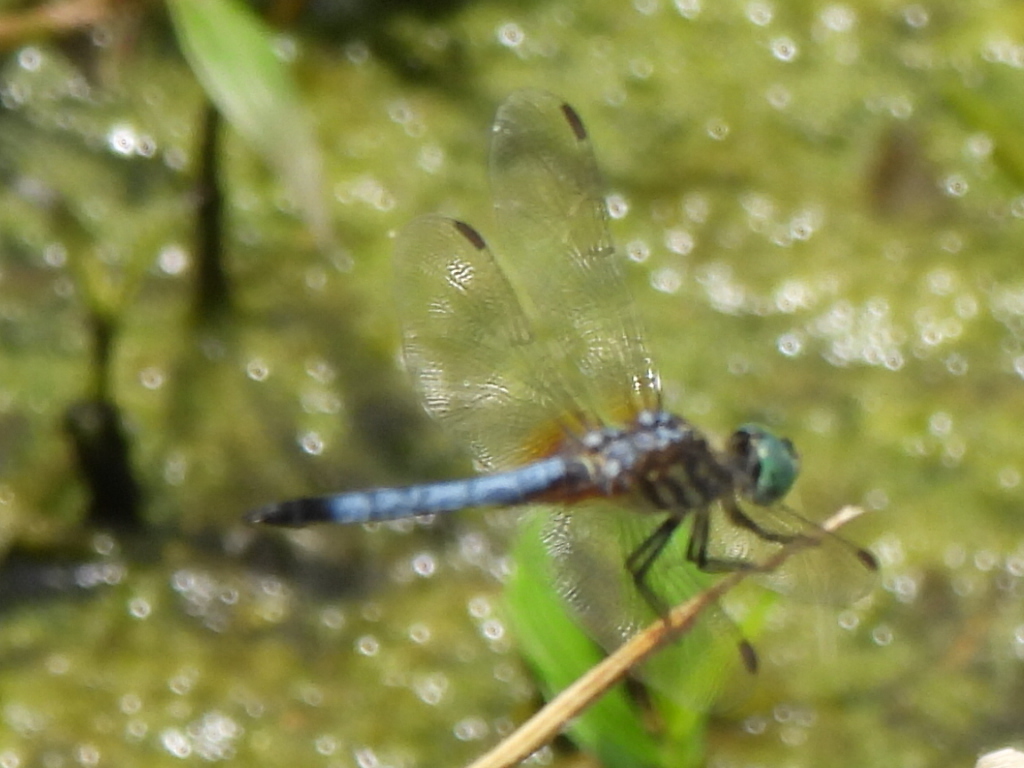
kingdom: Animalia
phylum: Arthropoda
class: Insecta
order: Odonata
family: Libellulidae
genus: Pachydiplax
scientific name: Pachydiplax longipennis
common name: Blue dasher
